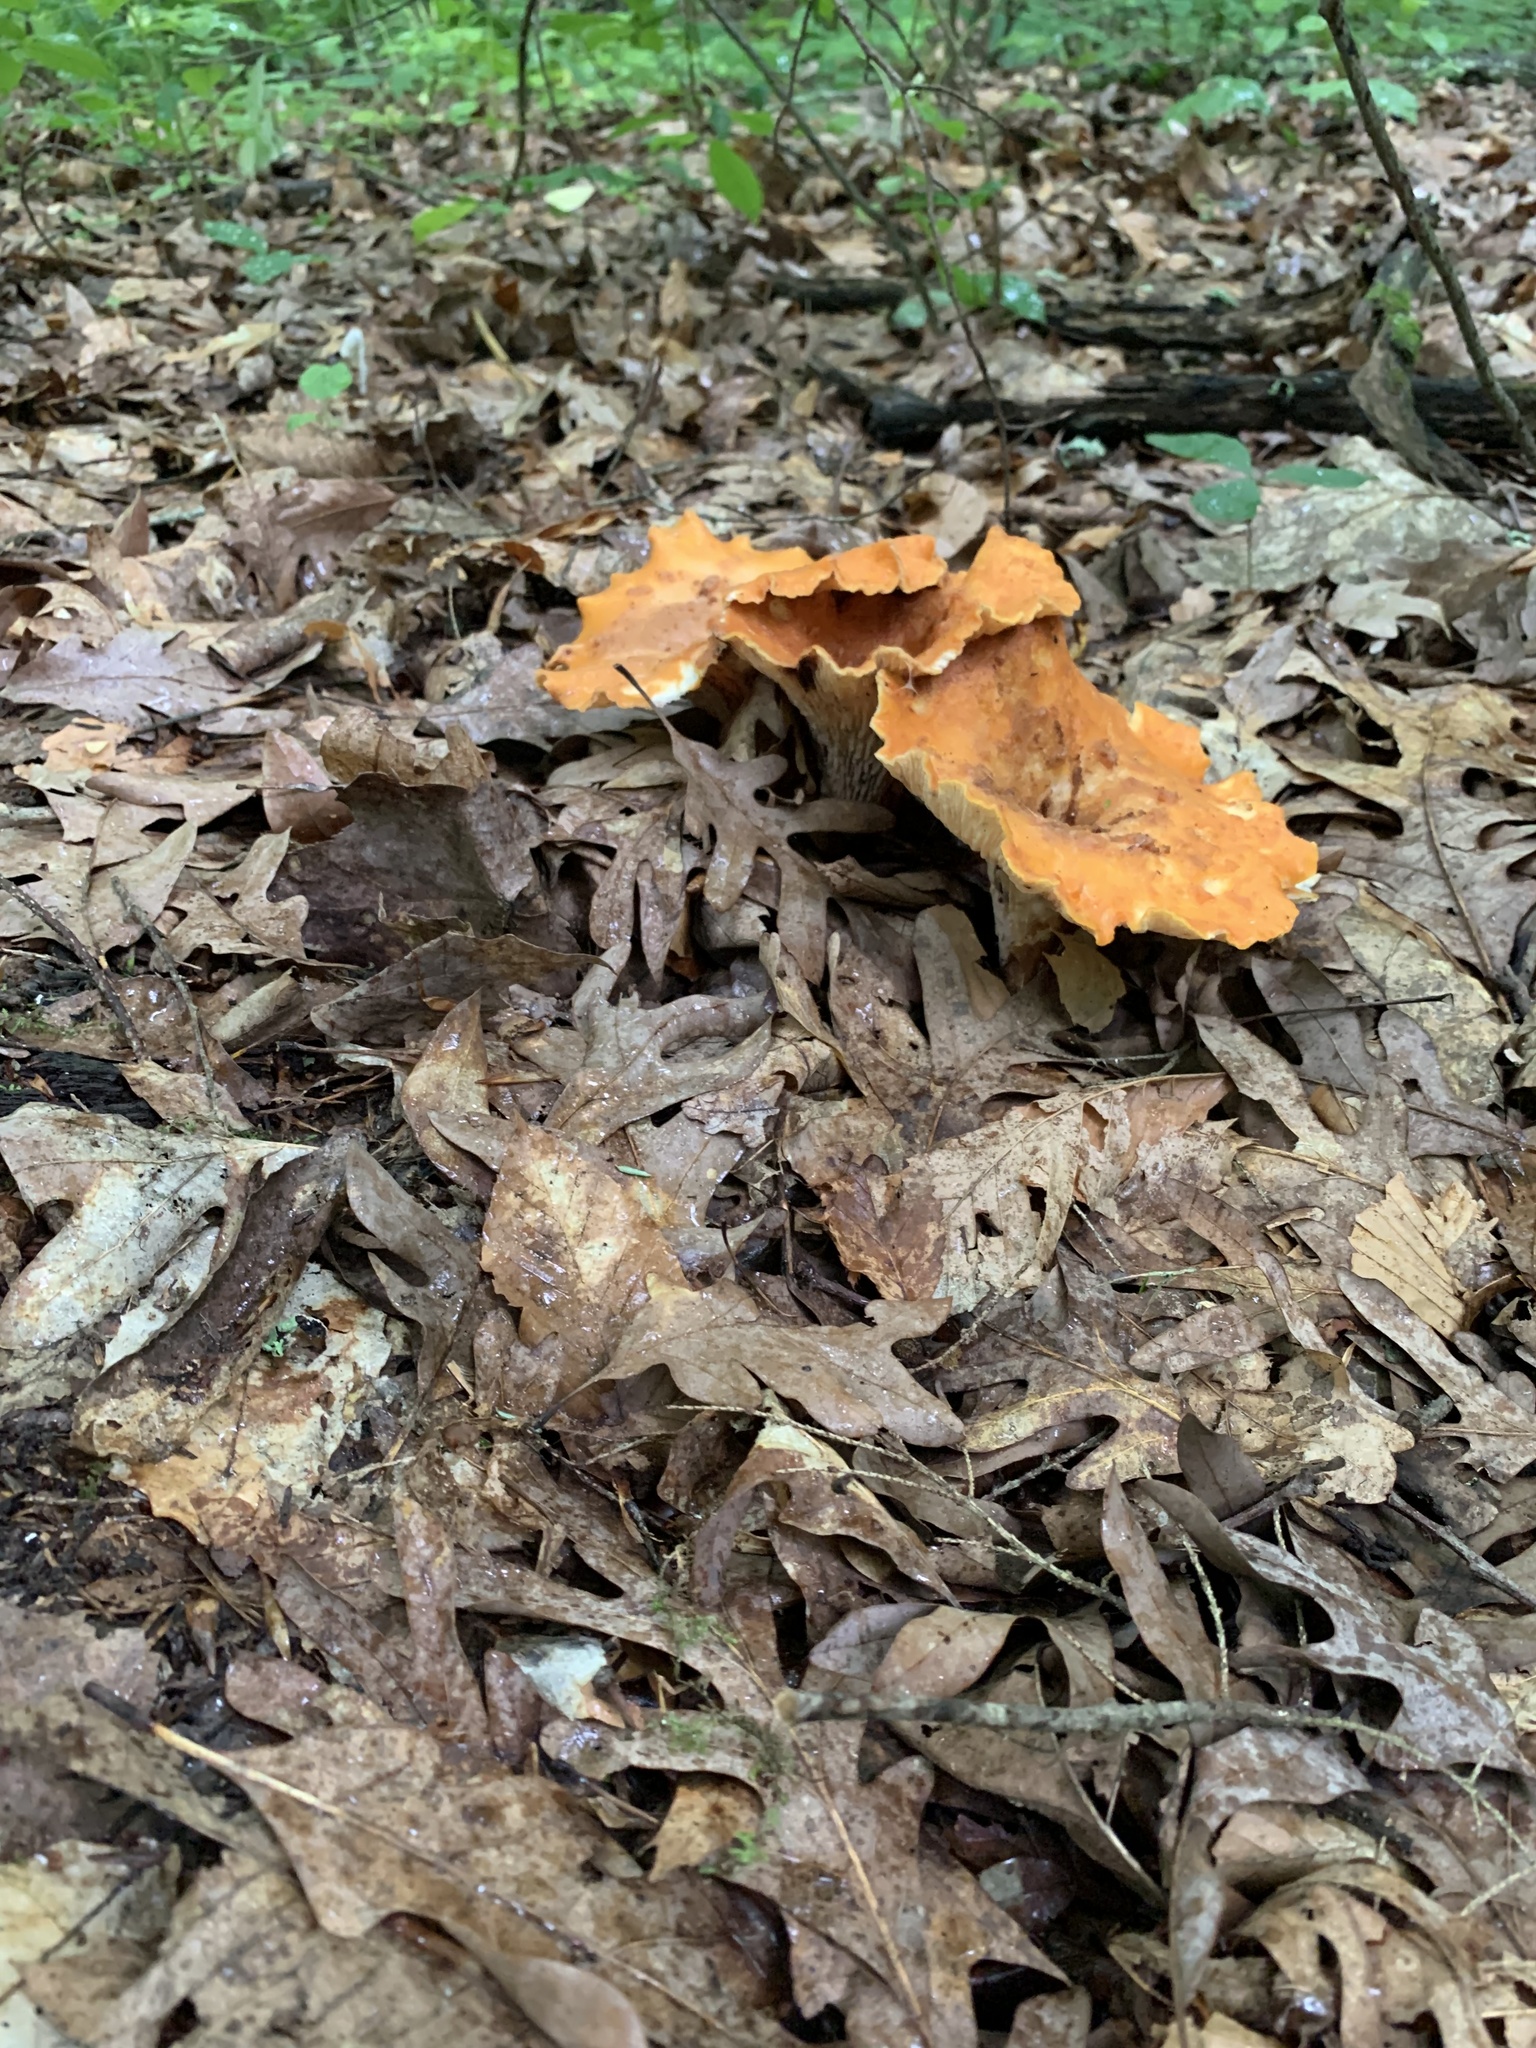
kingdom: Fungi
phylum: Basidiomycota
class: Agaricomycetes
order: Gomphales
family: Gomphaceae
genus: Turbinellus
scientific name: Turbinellus floccosus
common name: Scaly chanterelle
